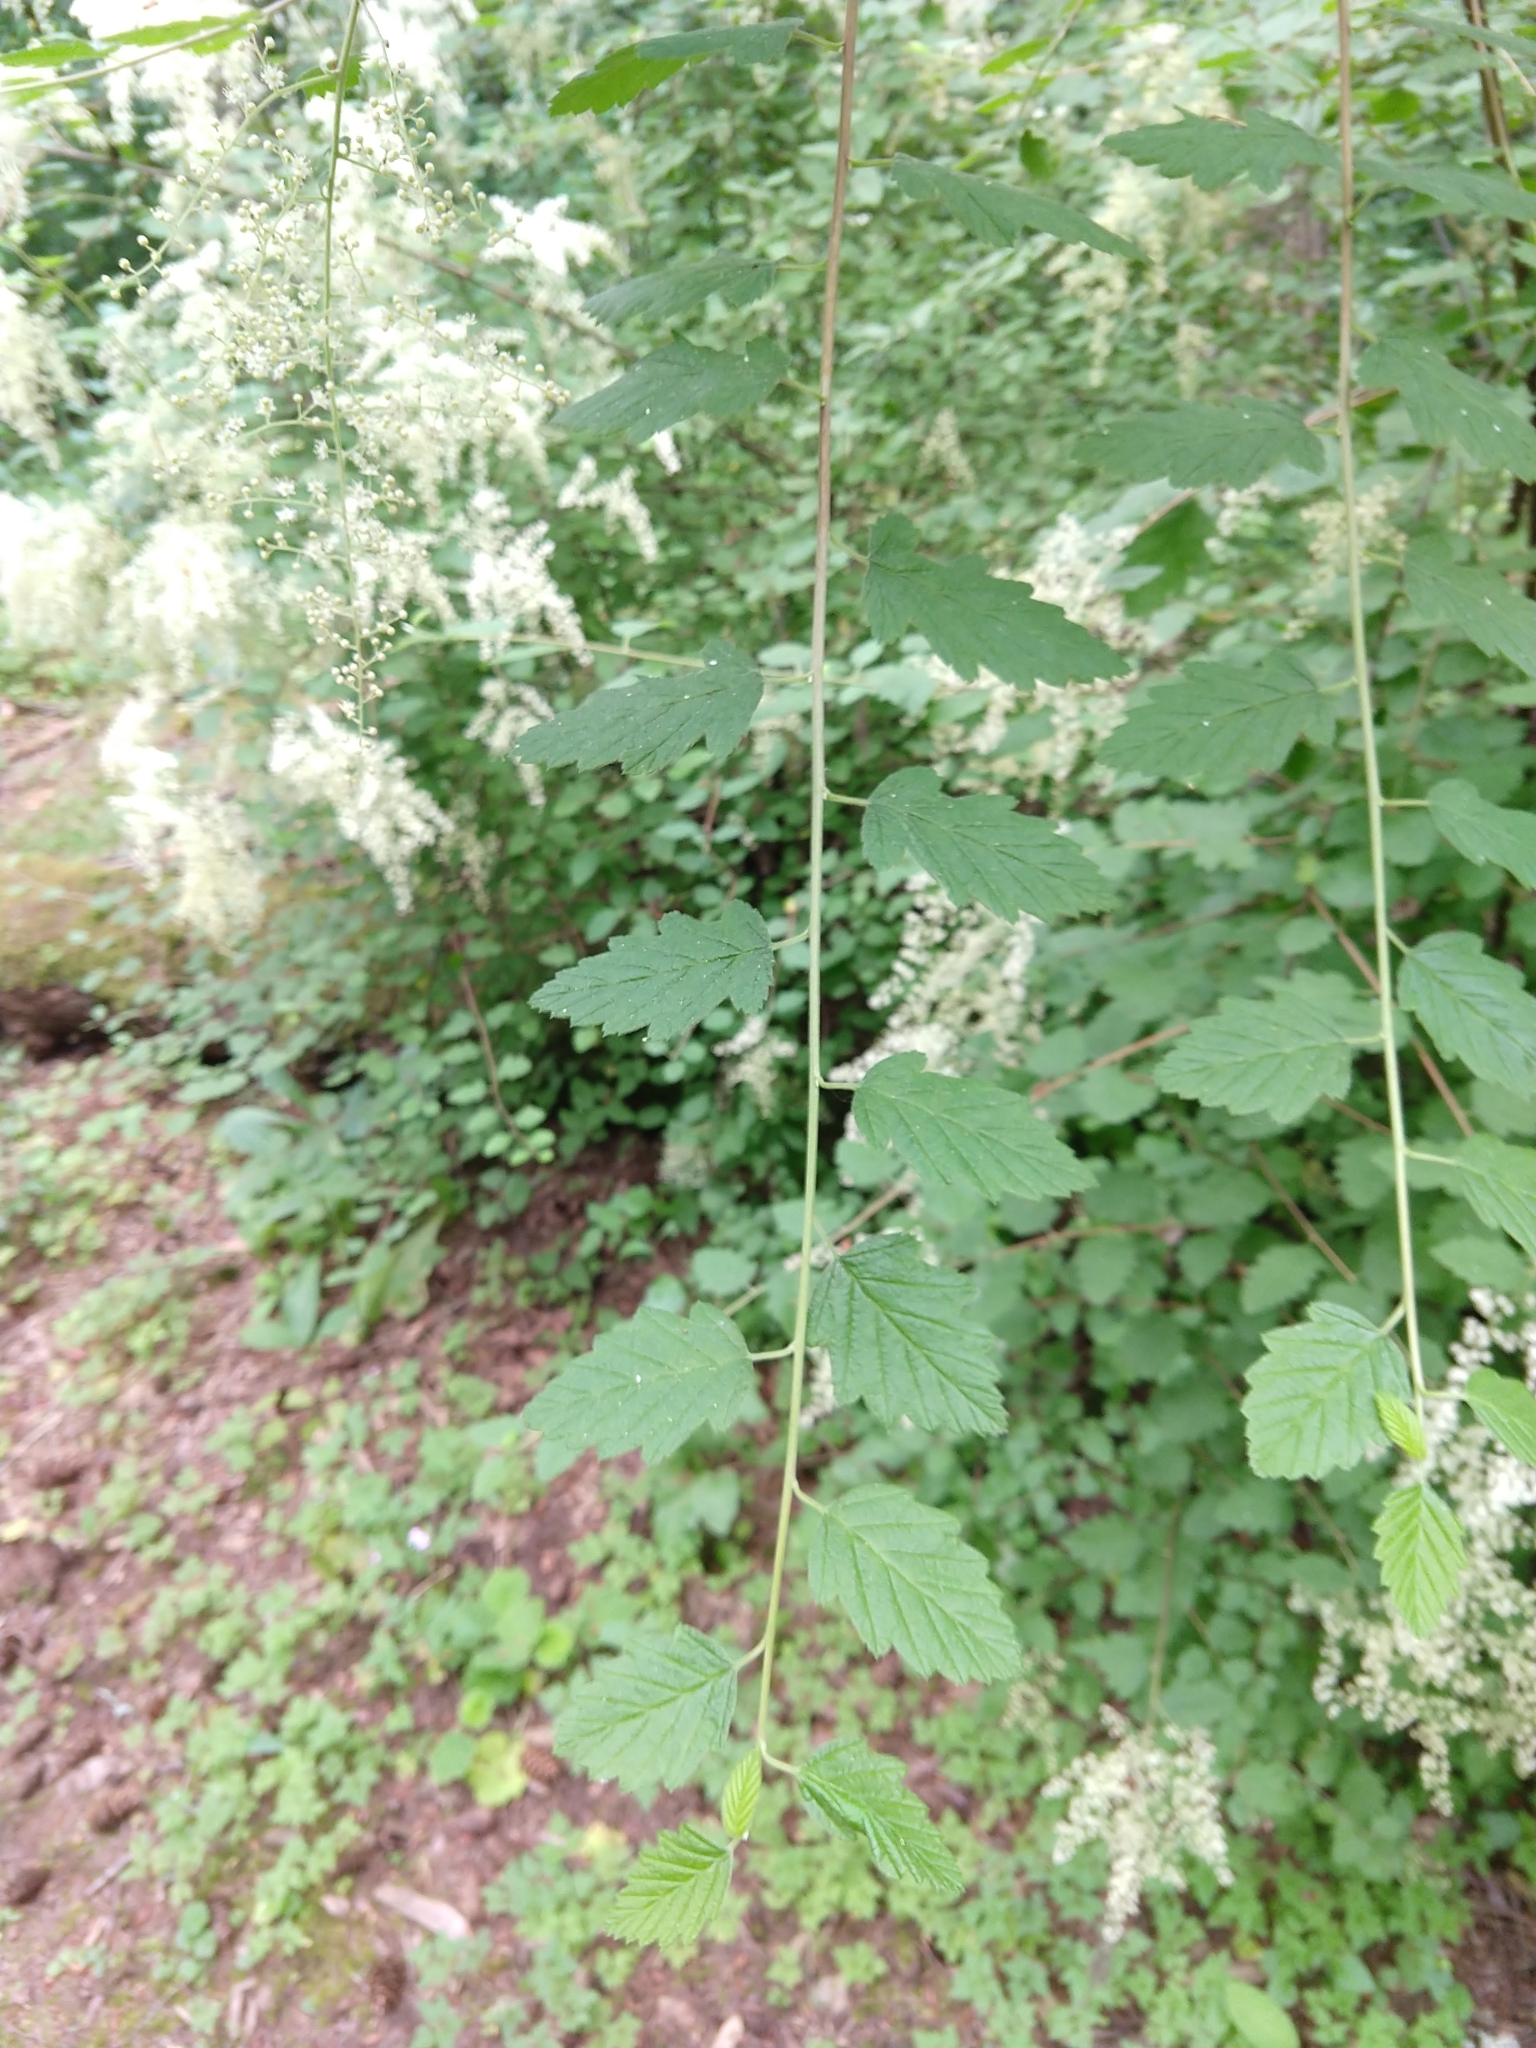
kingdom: Plantae
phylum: Tracheophyta
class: Magnoliopsida
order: Rosales
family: Rosaceae
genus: Holodiscus
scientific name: Holodiscus discolor
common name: Oceanspray
